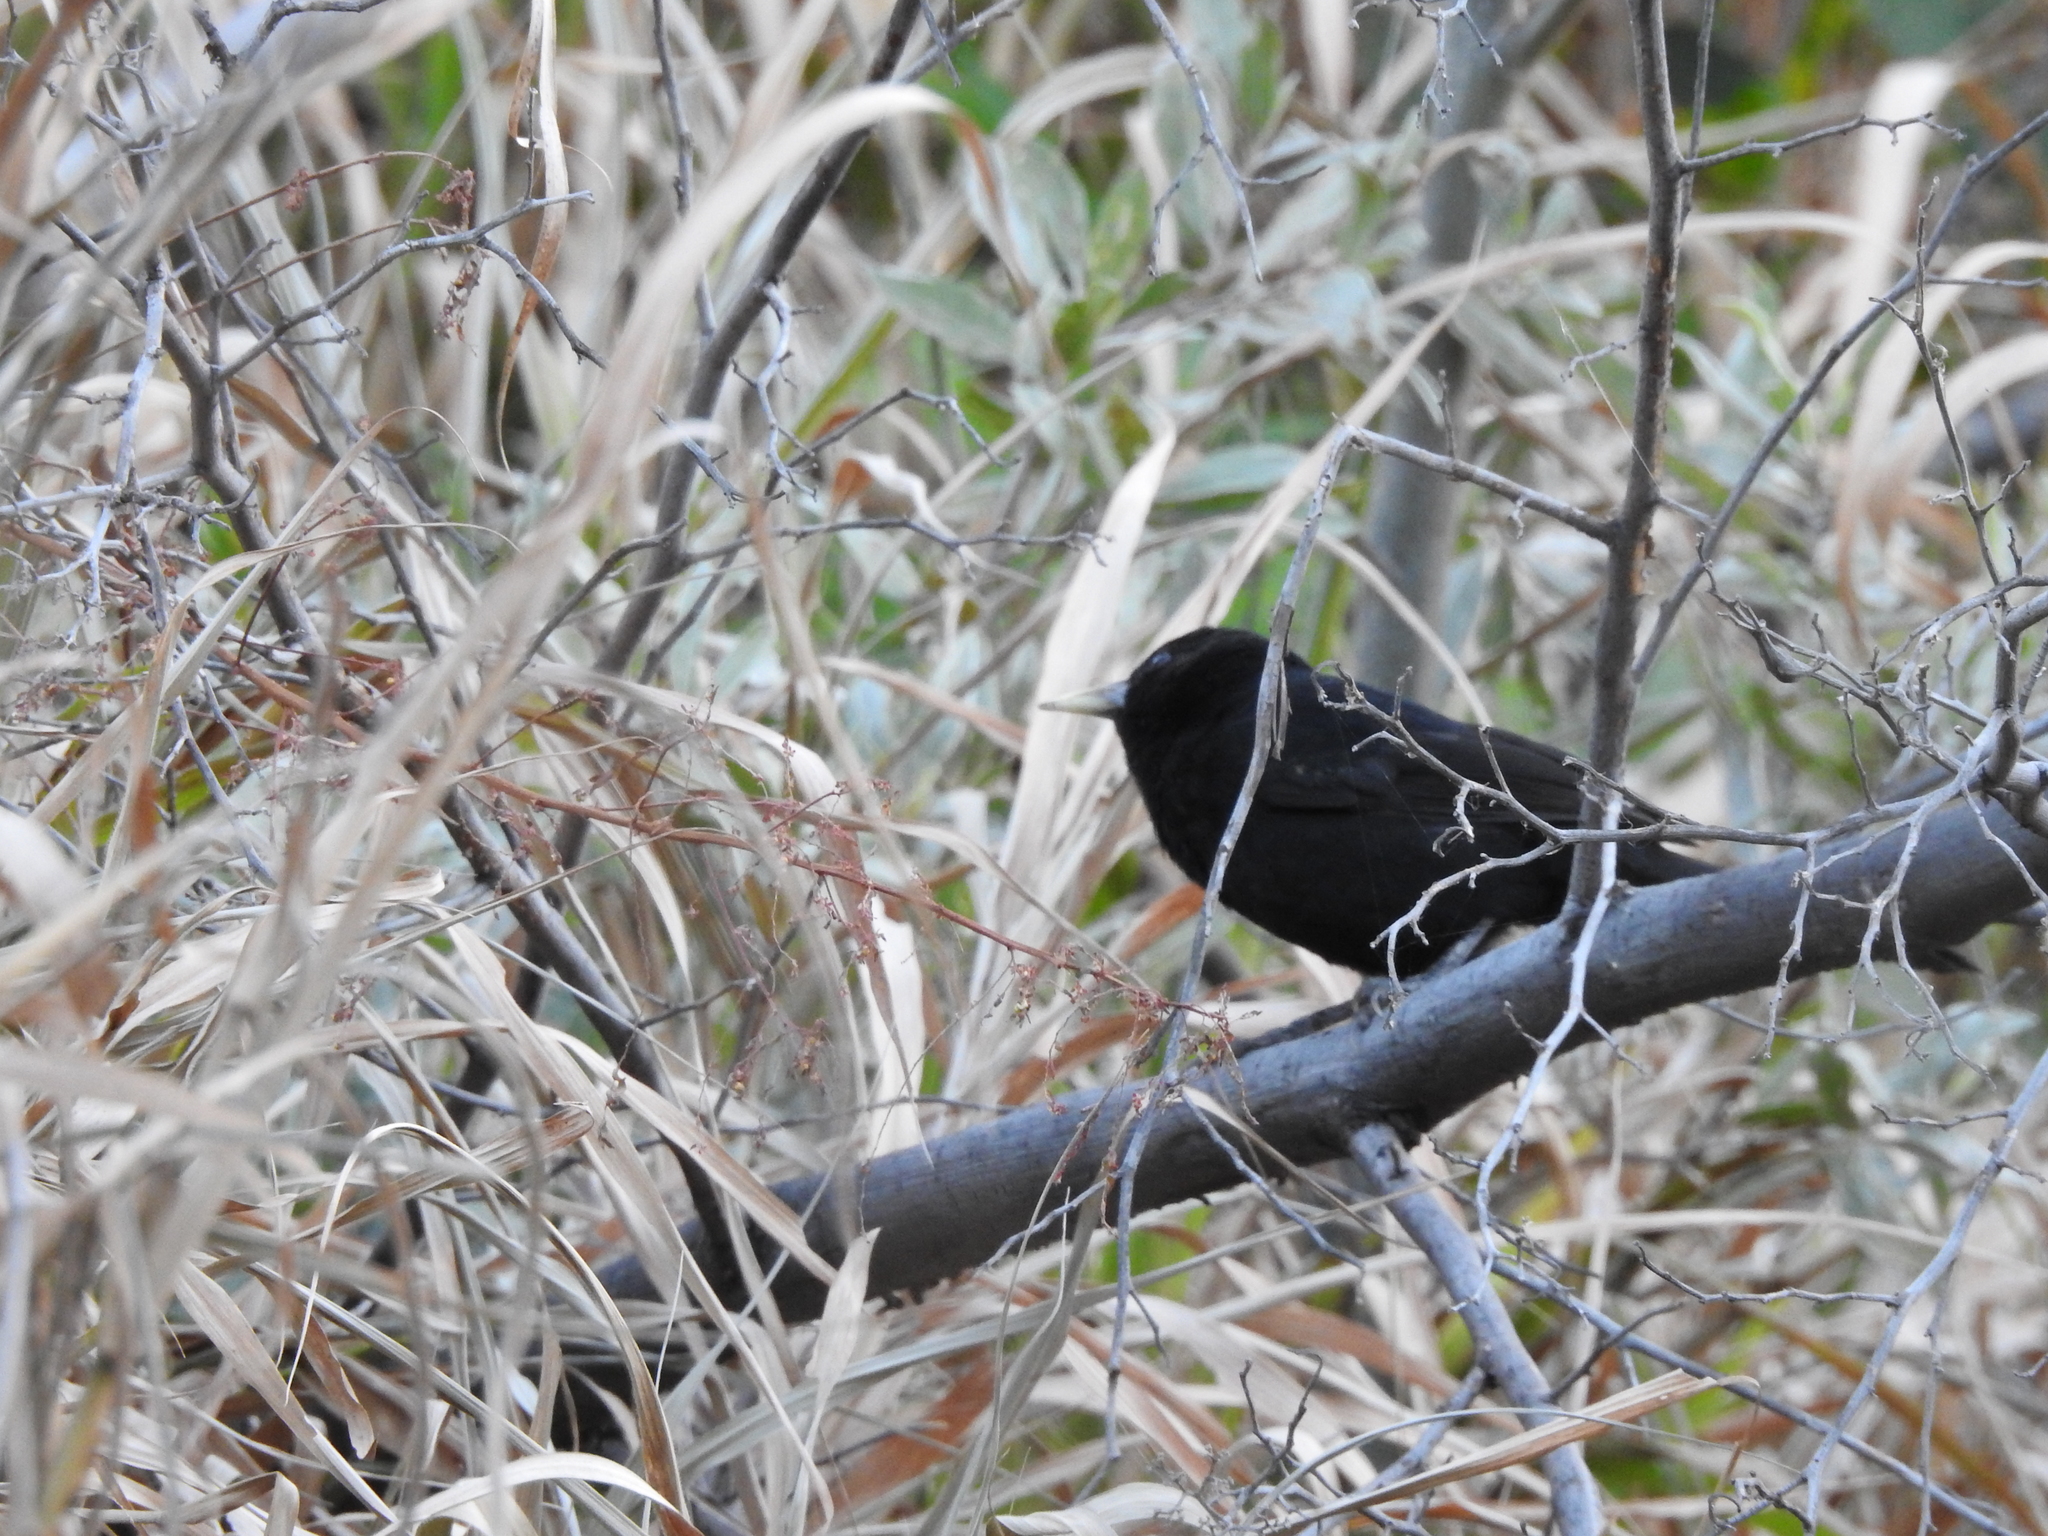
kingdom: Animalia
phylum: Chordata
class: Aves
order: Passeriformes
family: Icteridae
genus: Cacicus
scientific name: Cacicus solitarius
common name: Solitary cacique
